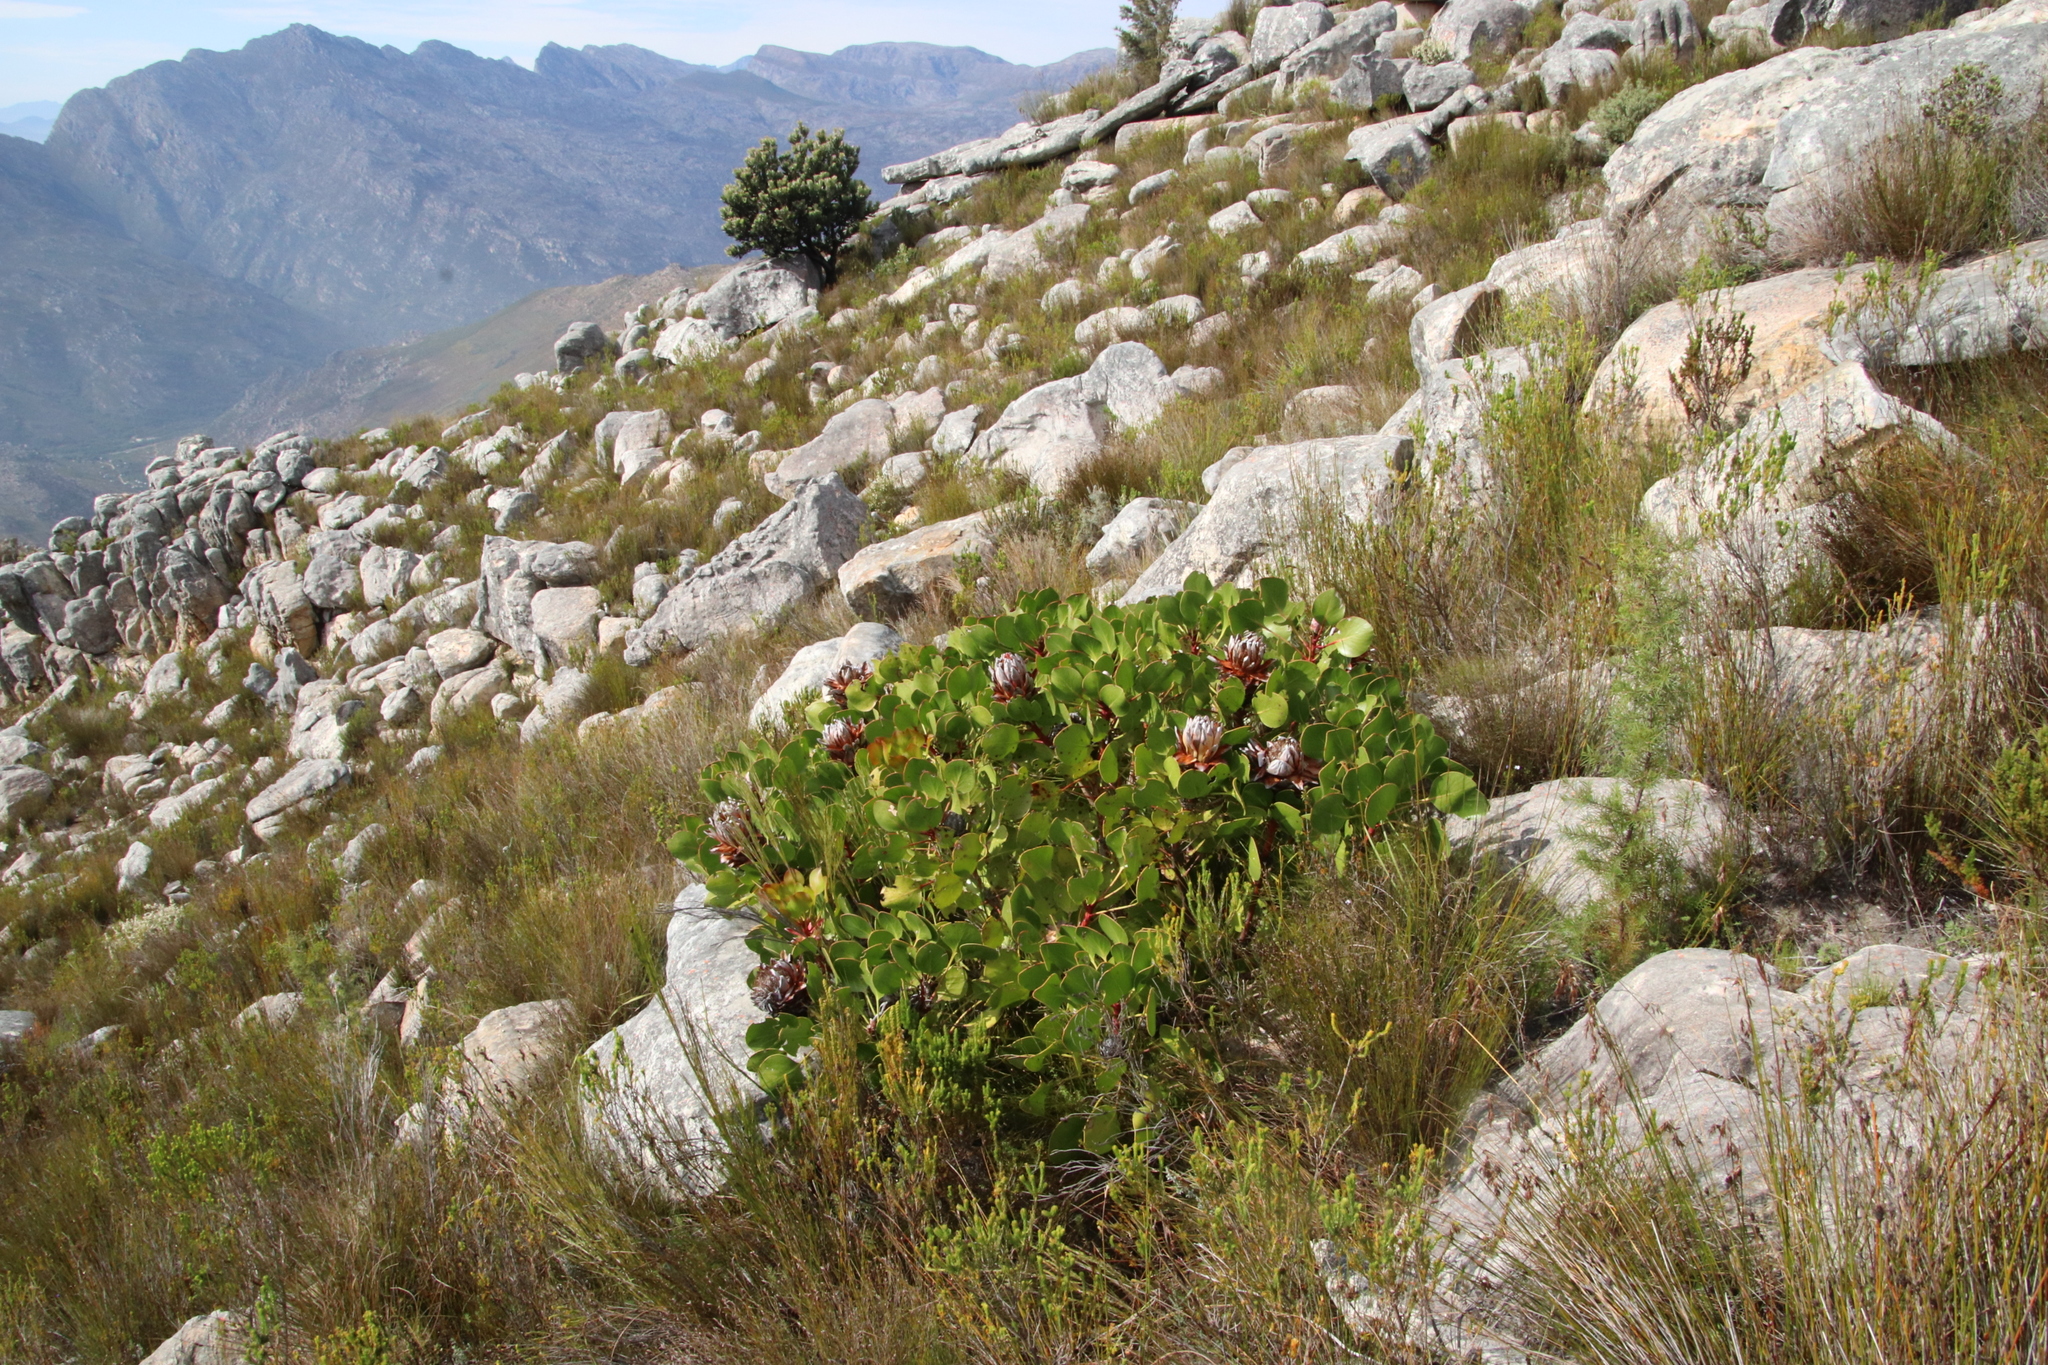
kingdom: Plantae
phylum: Tracheophyta
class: Magnoliopsida
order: Proteales
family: Proteaceae
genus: Protea
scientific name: Protea cynaroides
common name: King protea
